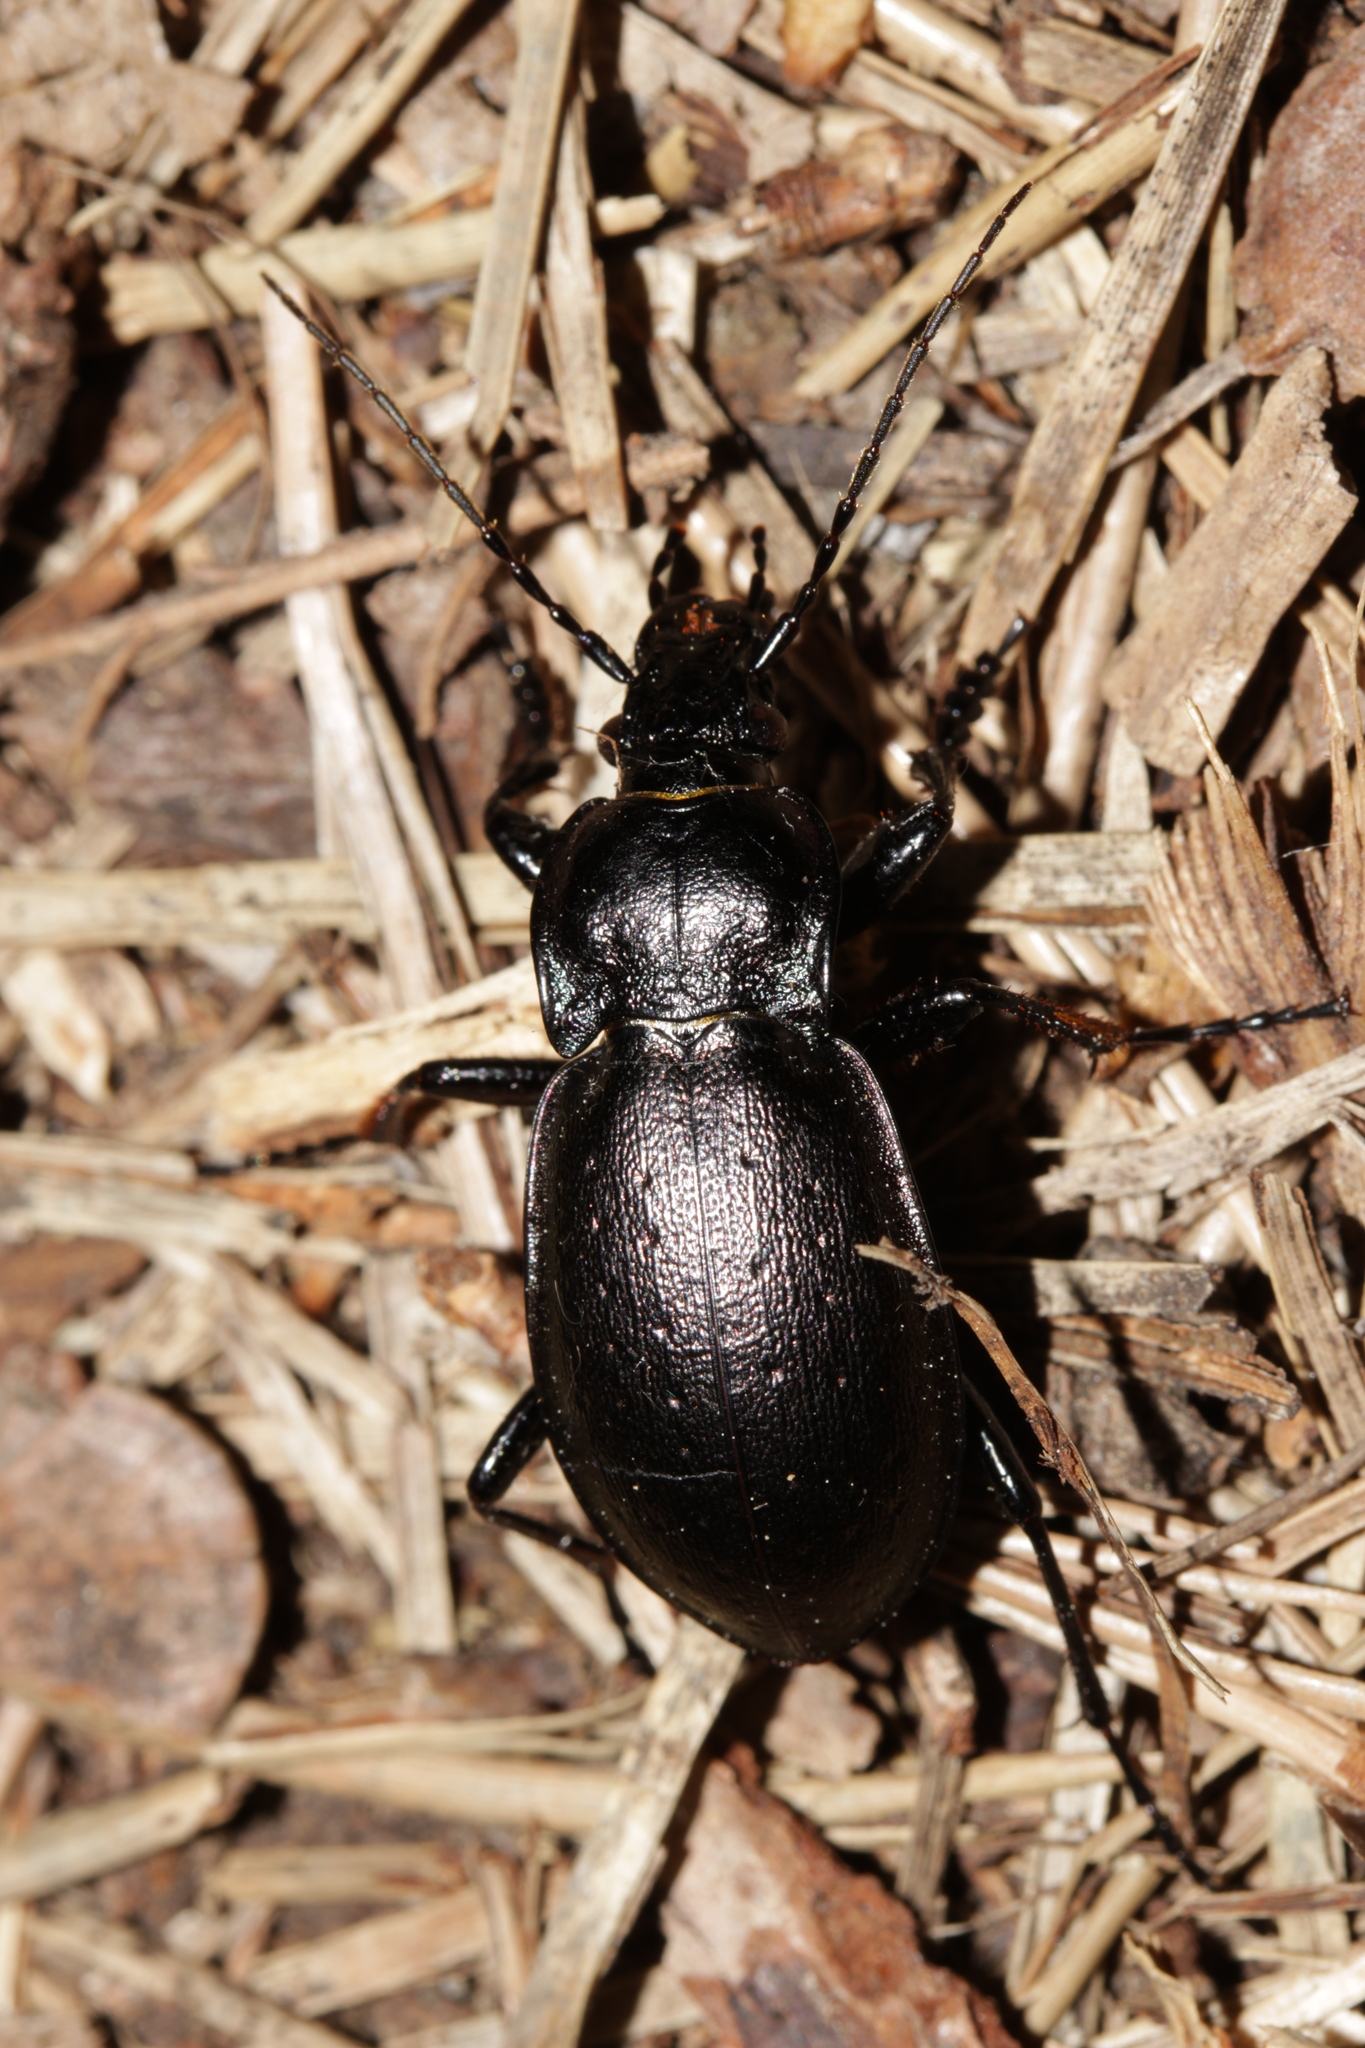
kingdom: Animalia
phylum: Arthropoda
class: Insecta
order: Coleoptera
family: Carabidae
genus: Carabus
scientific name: Carabus nemoralis
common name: European ground beetle
